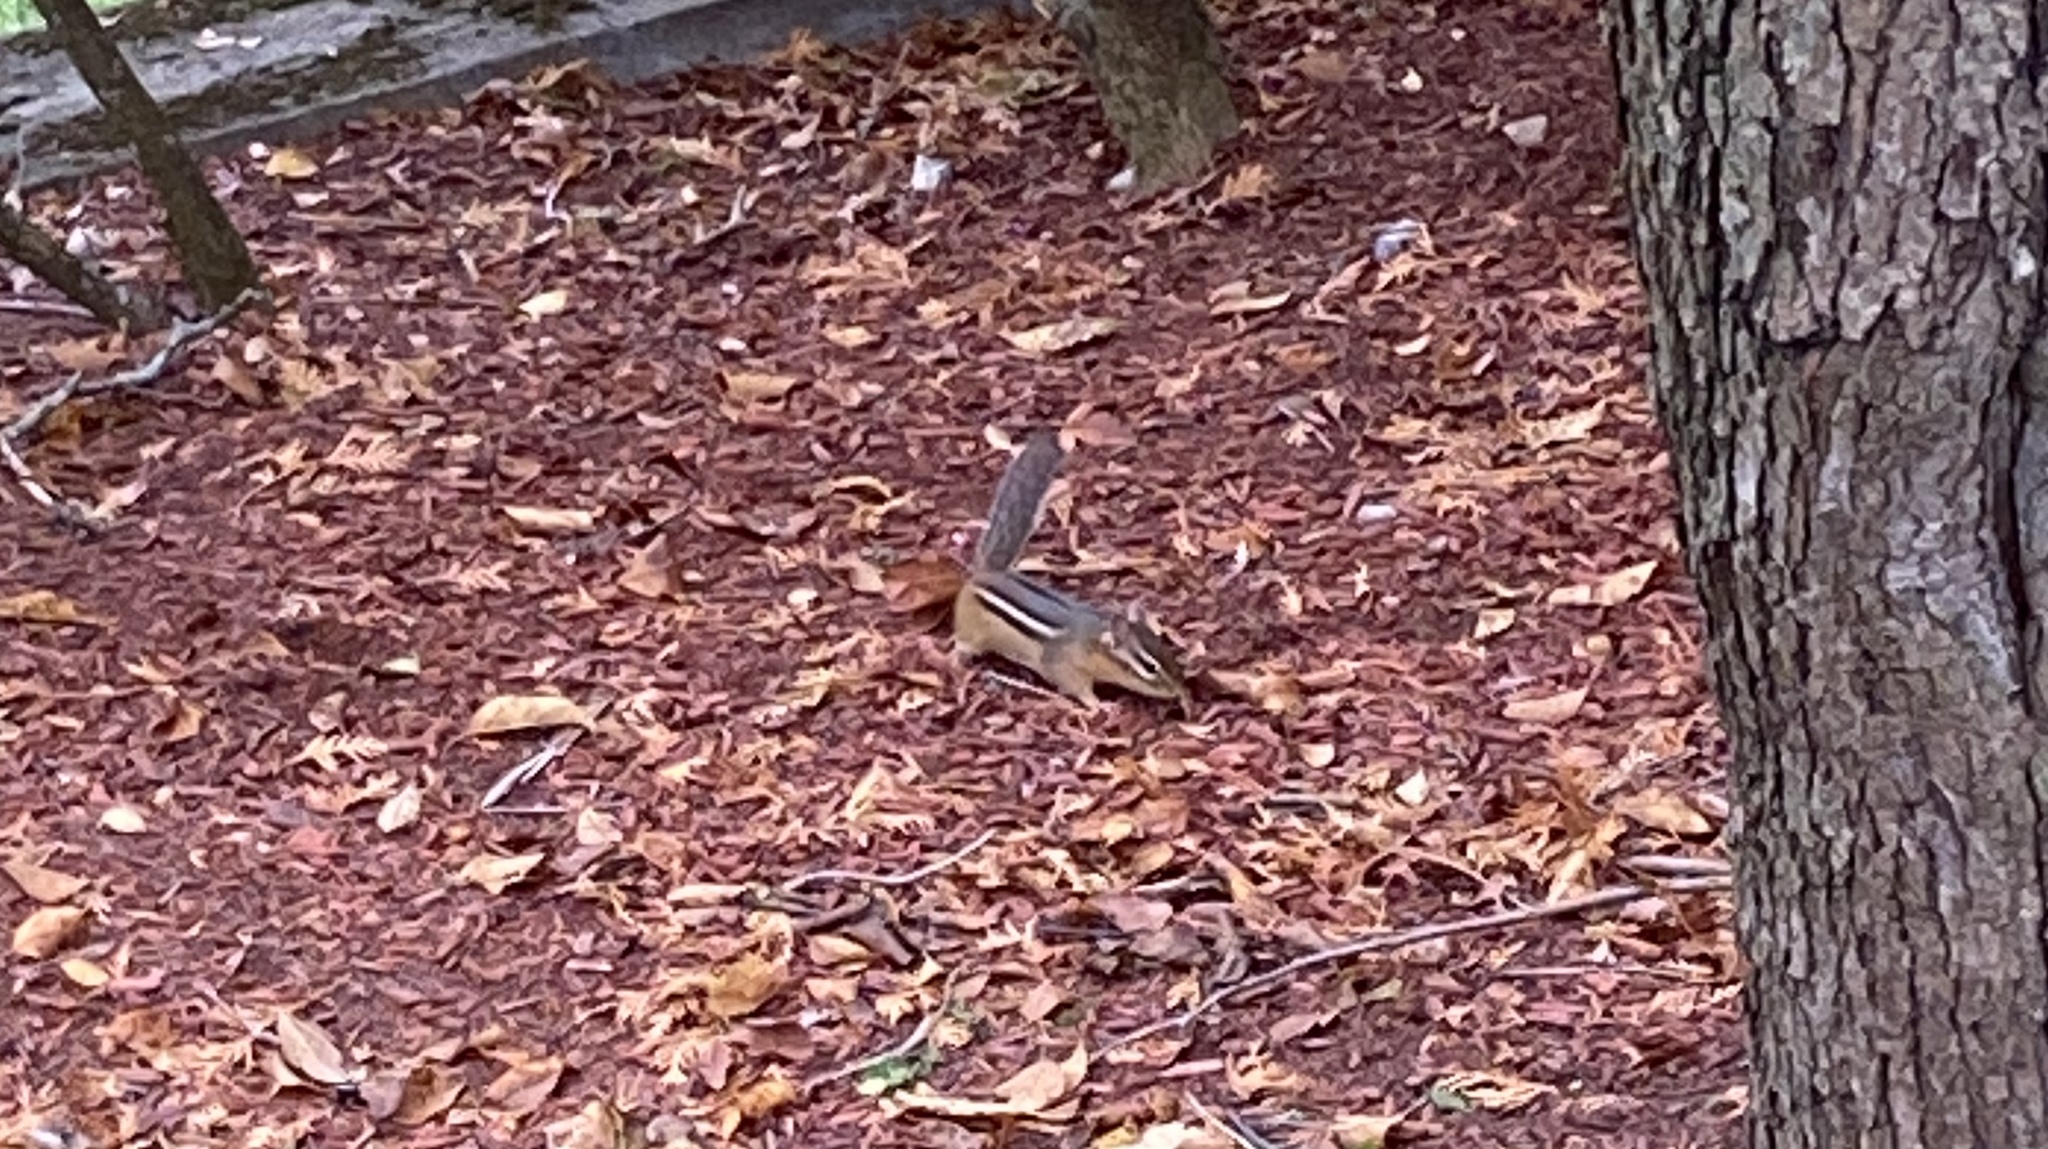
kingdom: Animalia
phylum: Chordata
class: Mammalia
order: Rodentia
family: Sciuridae
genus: Tamias
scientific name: Tamias striatus
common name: Eastern chipmunk
